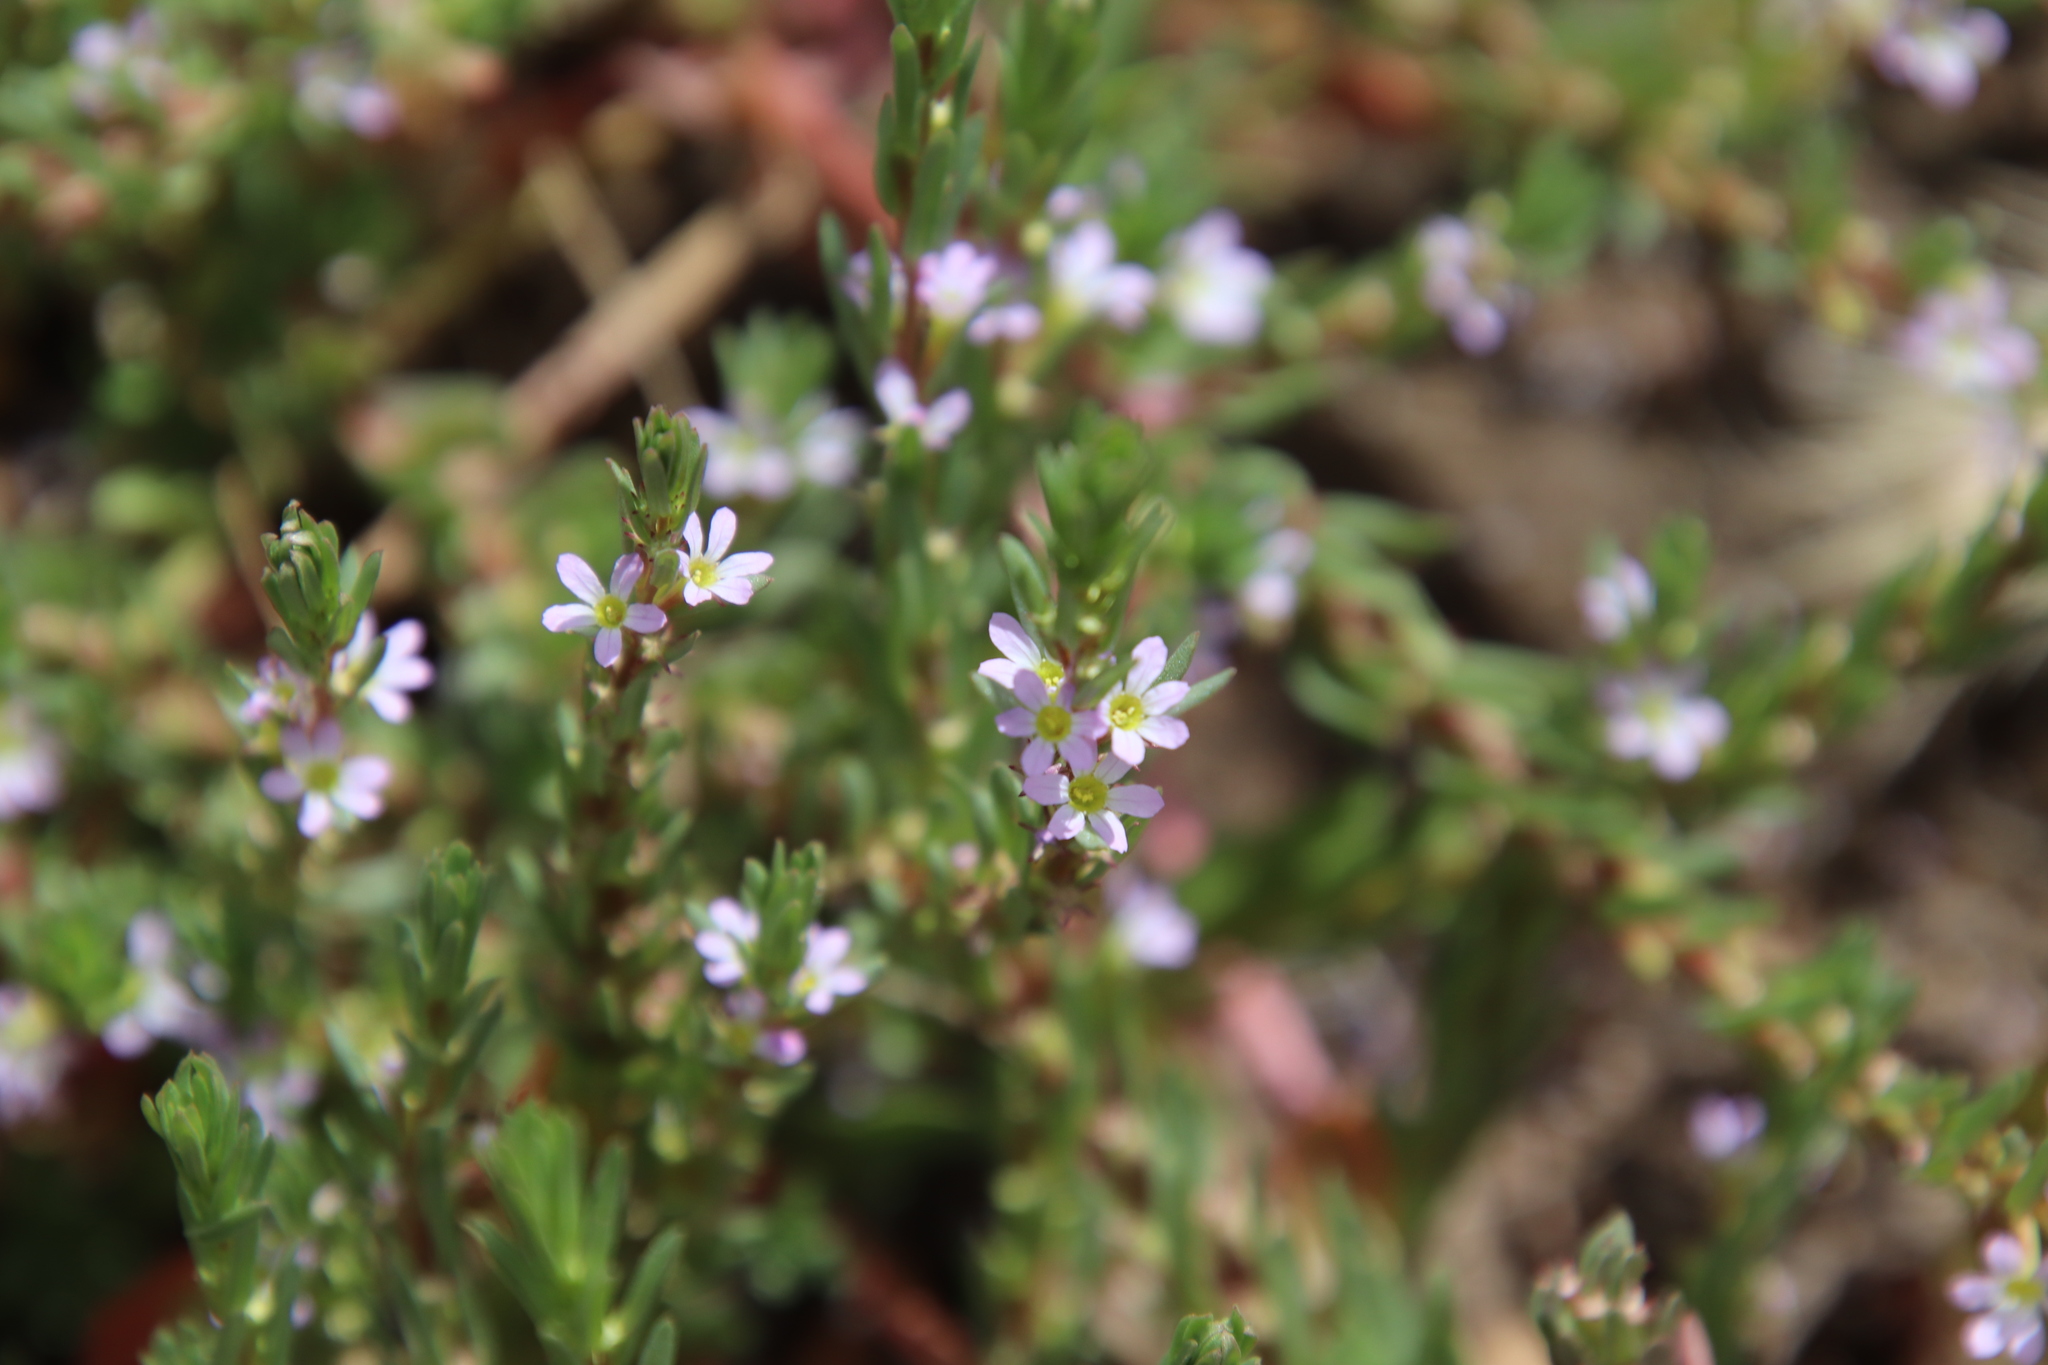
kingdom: Plantae
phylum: Tracheophyta
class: Magnoliopsida
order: Myrtales
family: Lythraceae
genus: Lythrum
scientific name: Lythrum hyssopifolia
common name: Grass-poly
